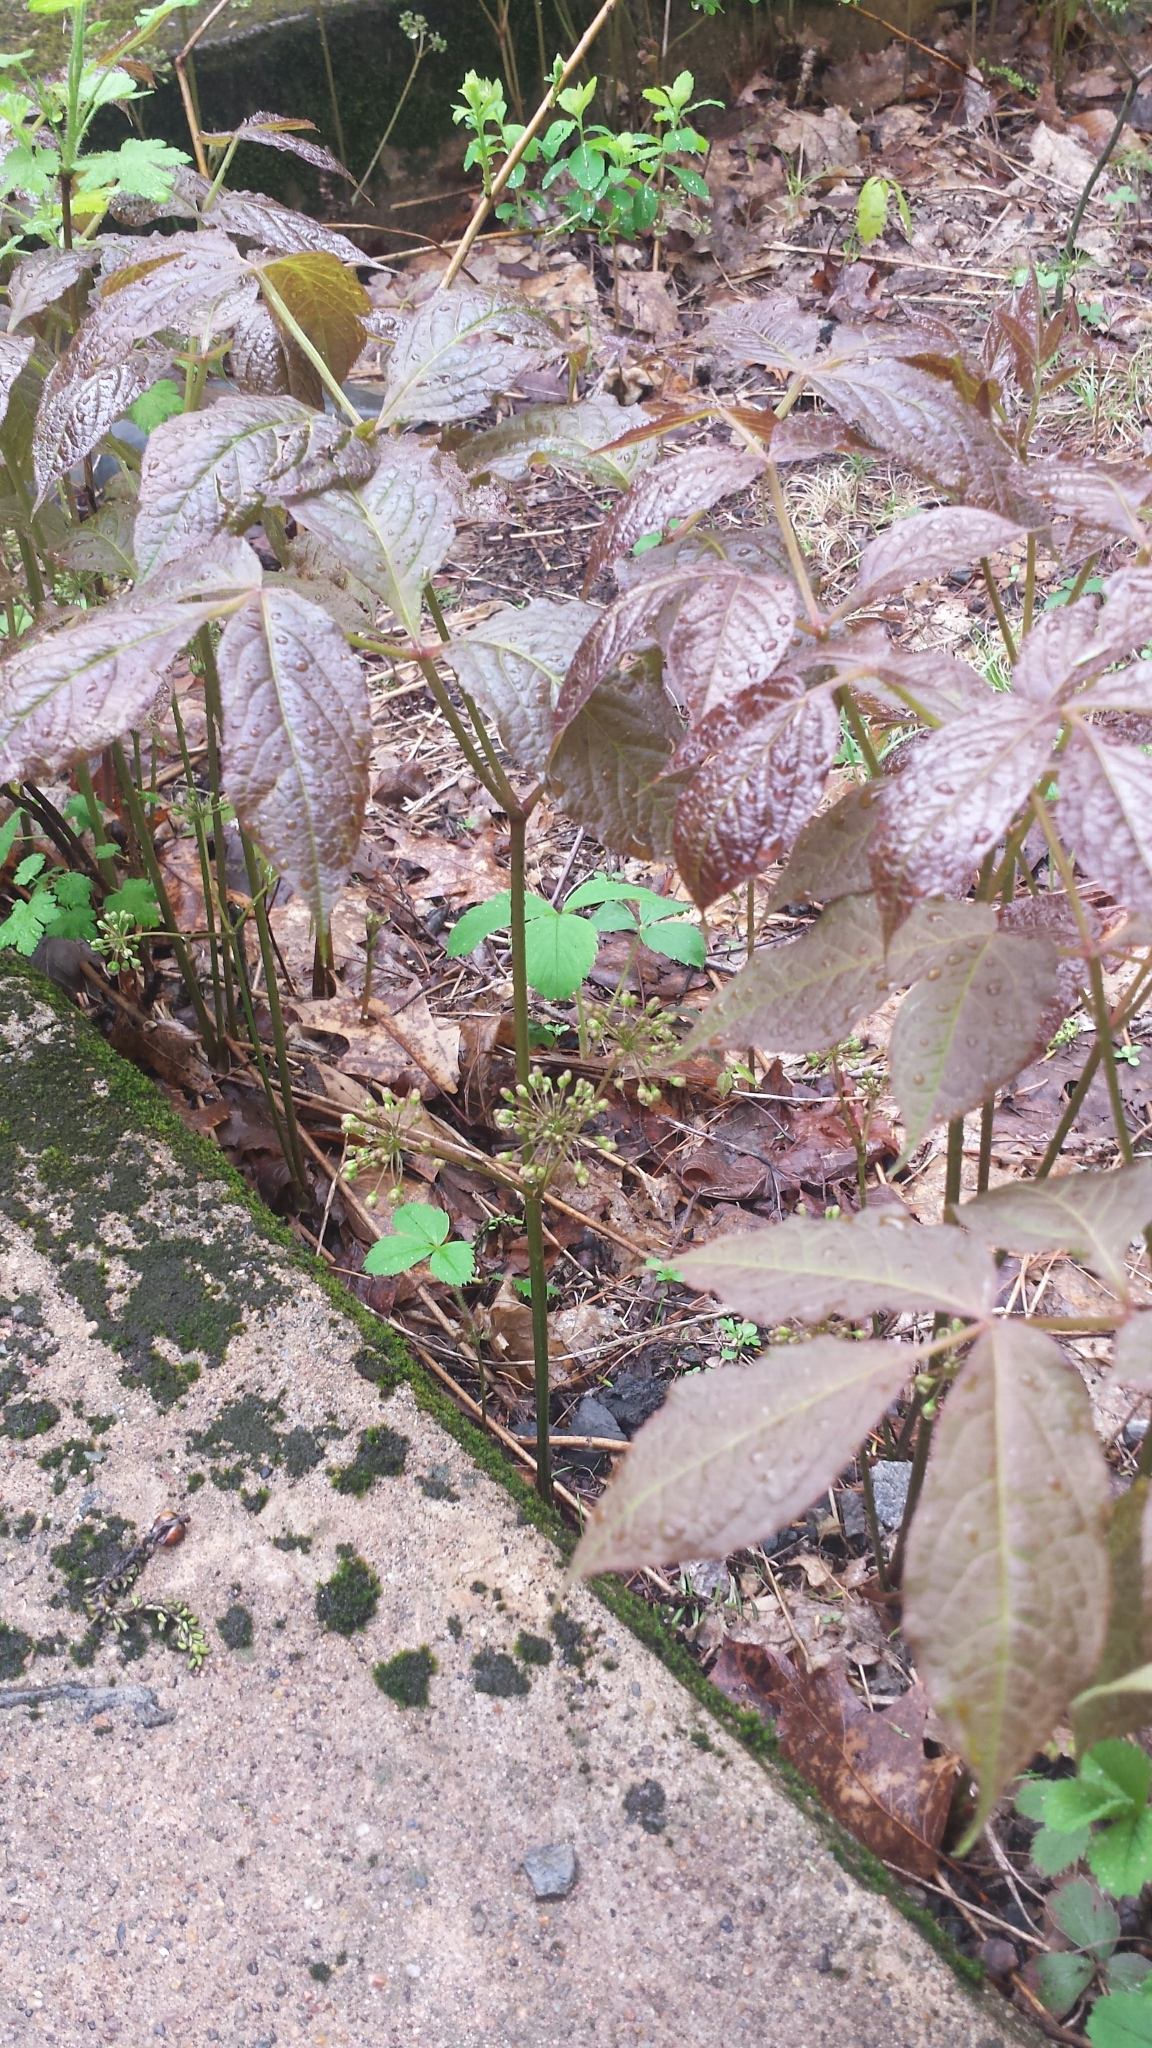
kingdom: Plantae
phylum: Tracheophyta
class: Magnoliopsida
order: Apiales
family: Araliaceae
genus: Aralia
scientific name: Aralia nudicaulis
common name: Wild sarsaparilla
